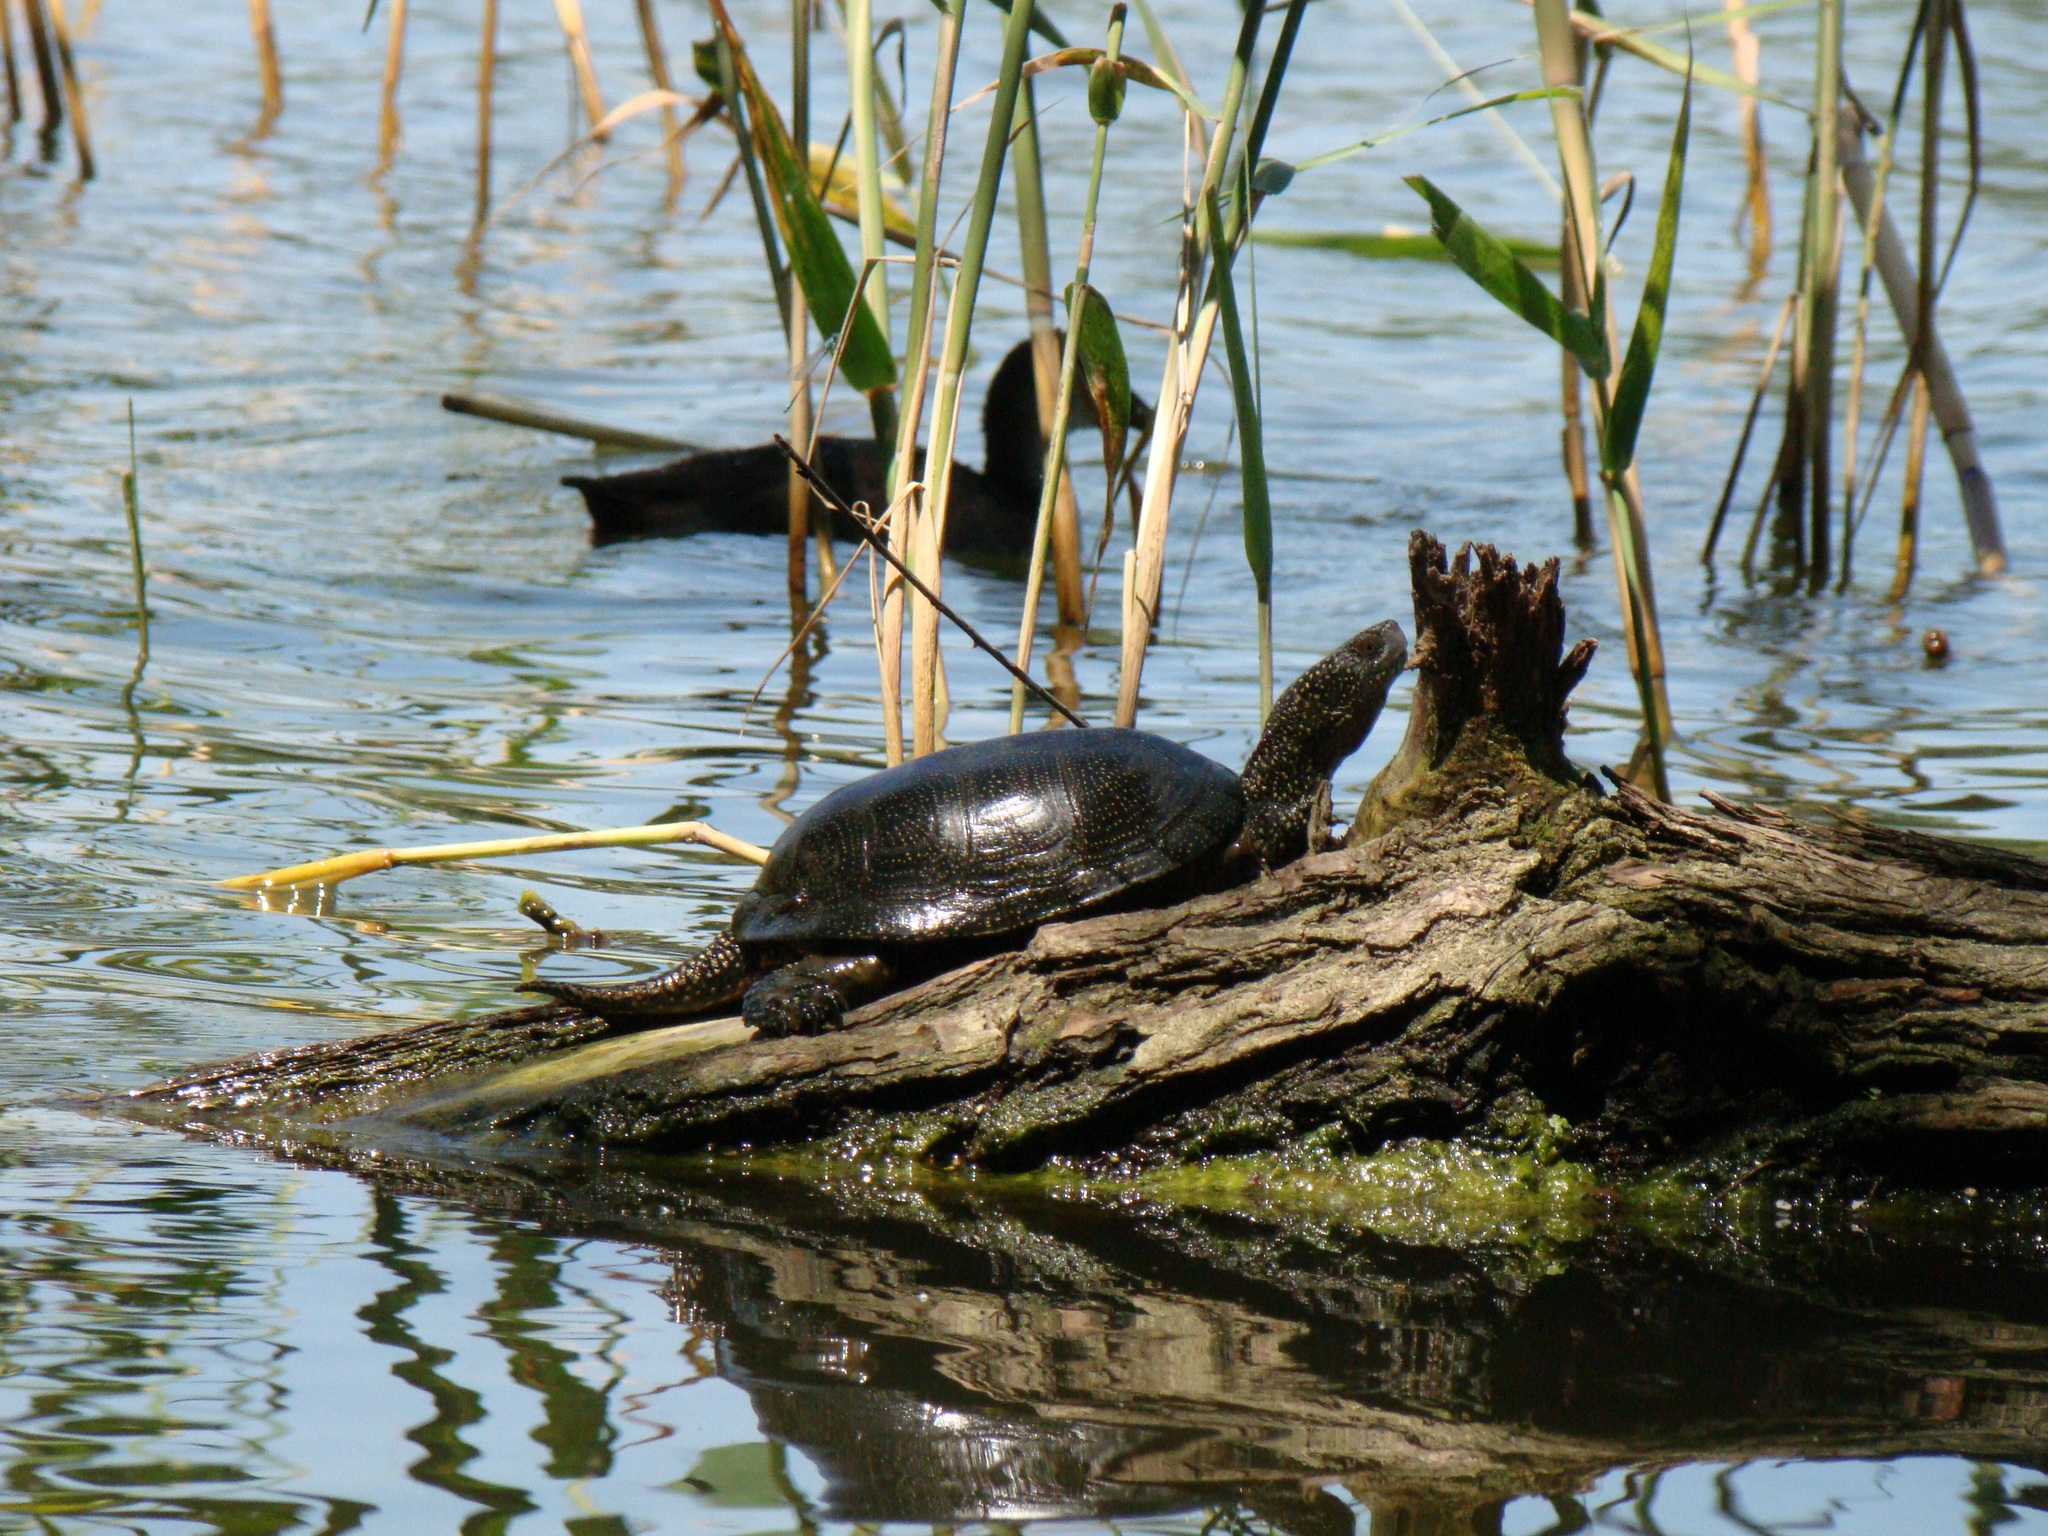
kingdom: Animalia
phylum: Chordata
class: Testudines
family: Emydidae
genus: Emys
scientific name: Emys orbicularis
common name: European pond turtle
